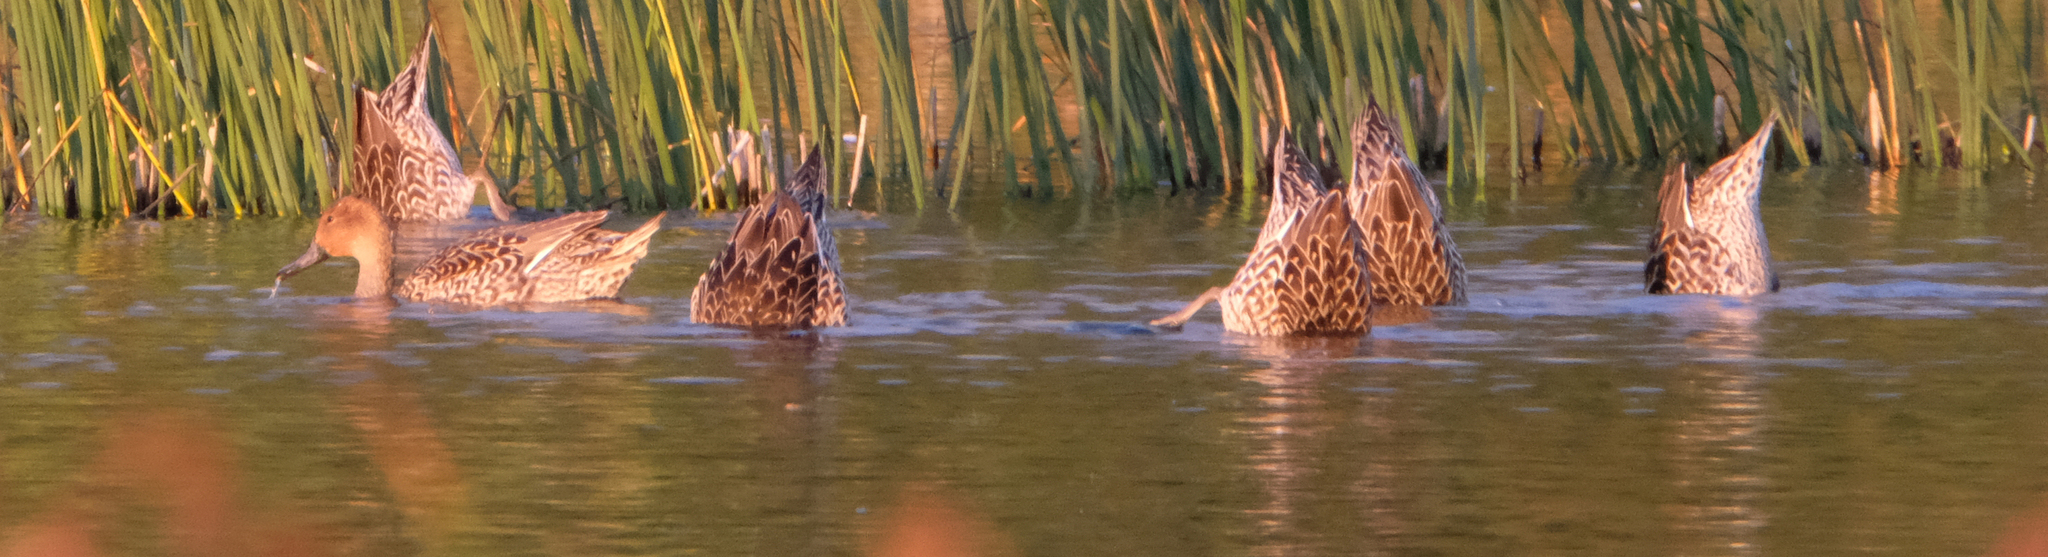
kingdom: Animalia
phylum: Chordata
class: Aves
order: Anseriformes
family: Anatidae
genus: Anas
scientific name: Anas acuta
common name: Northern pintail
